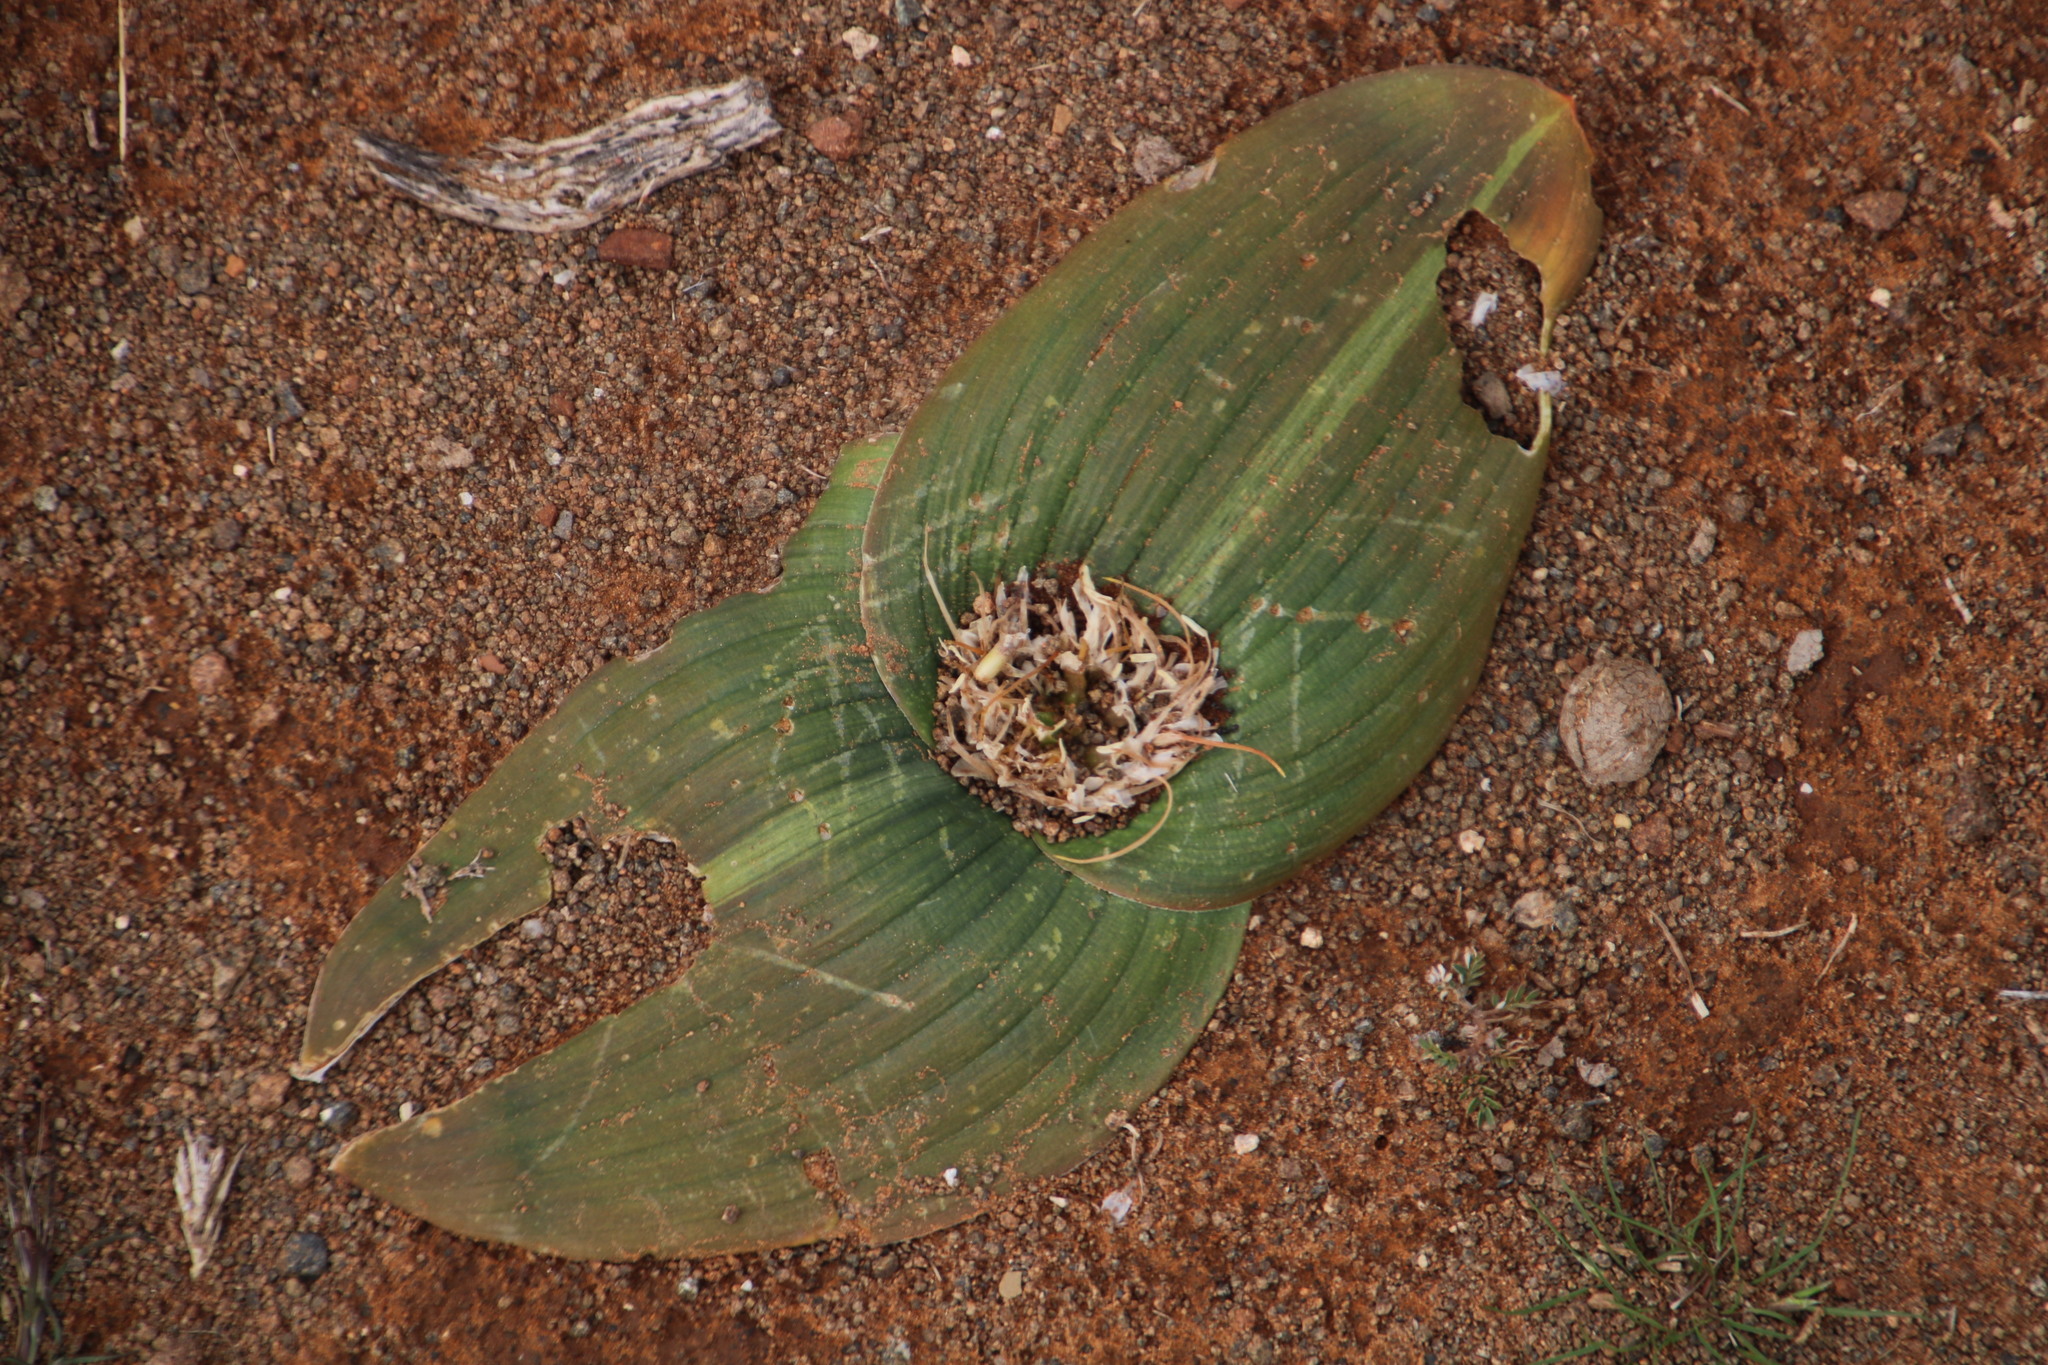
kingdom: Plantae
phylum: Tracheophyta
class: Liliopsida
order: Asparagales
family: Asparagaceae
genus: Daubenya
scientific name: Daubenya marginata
